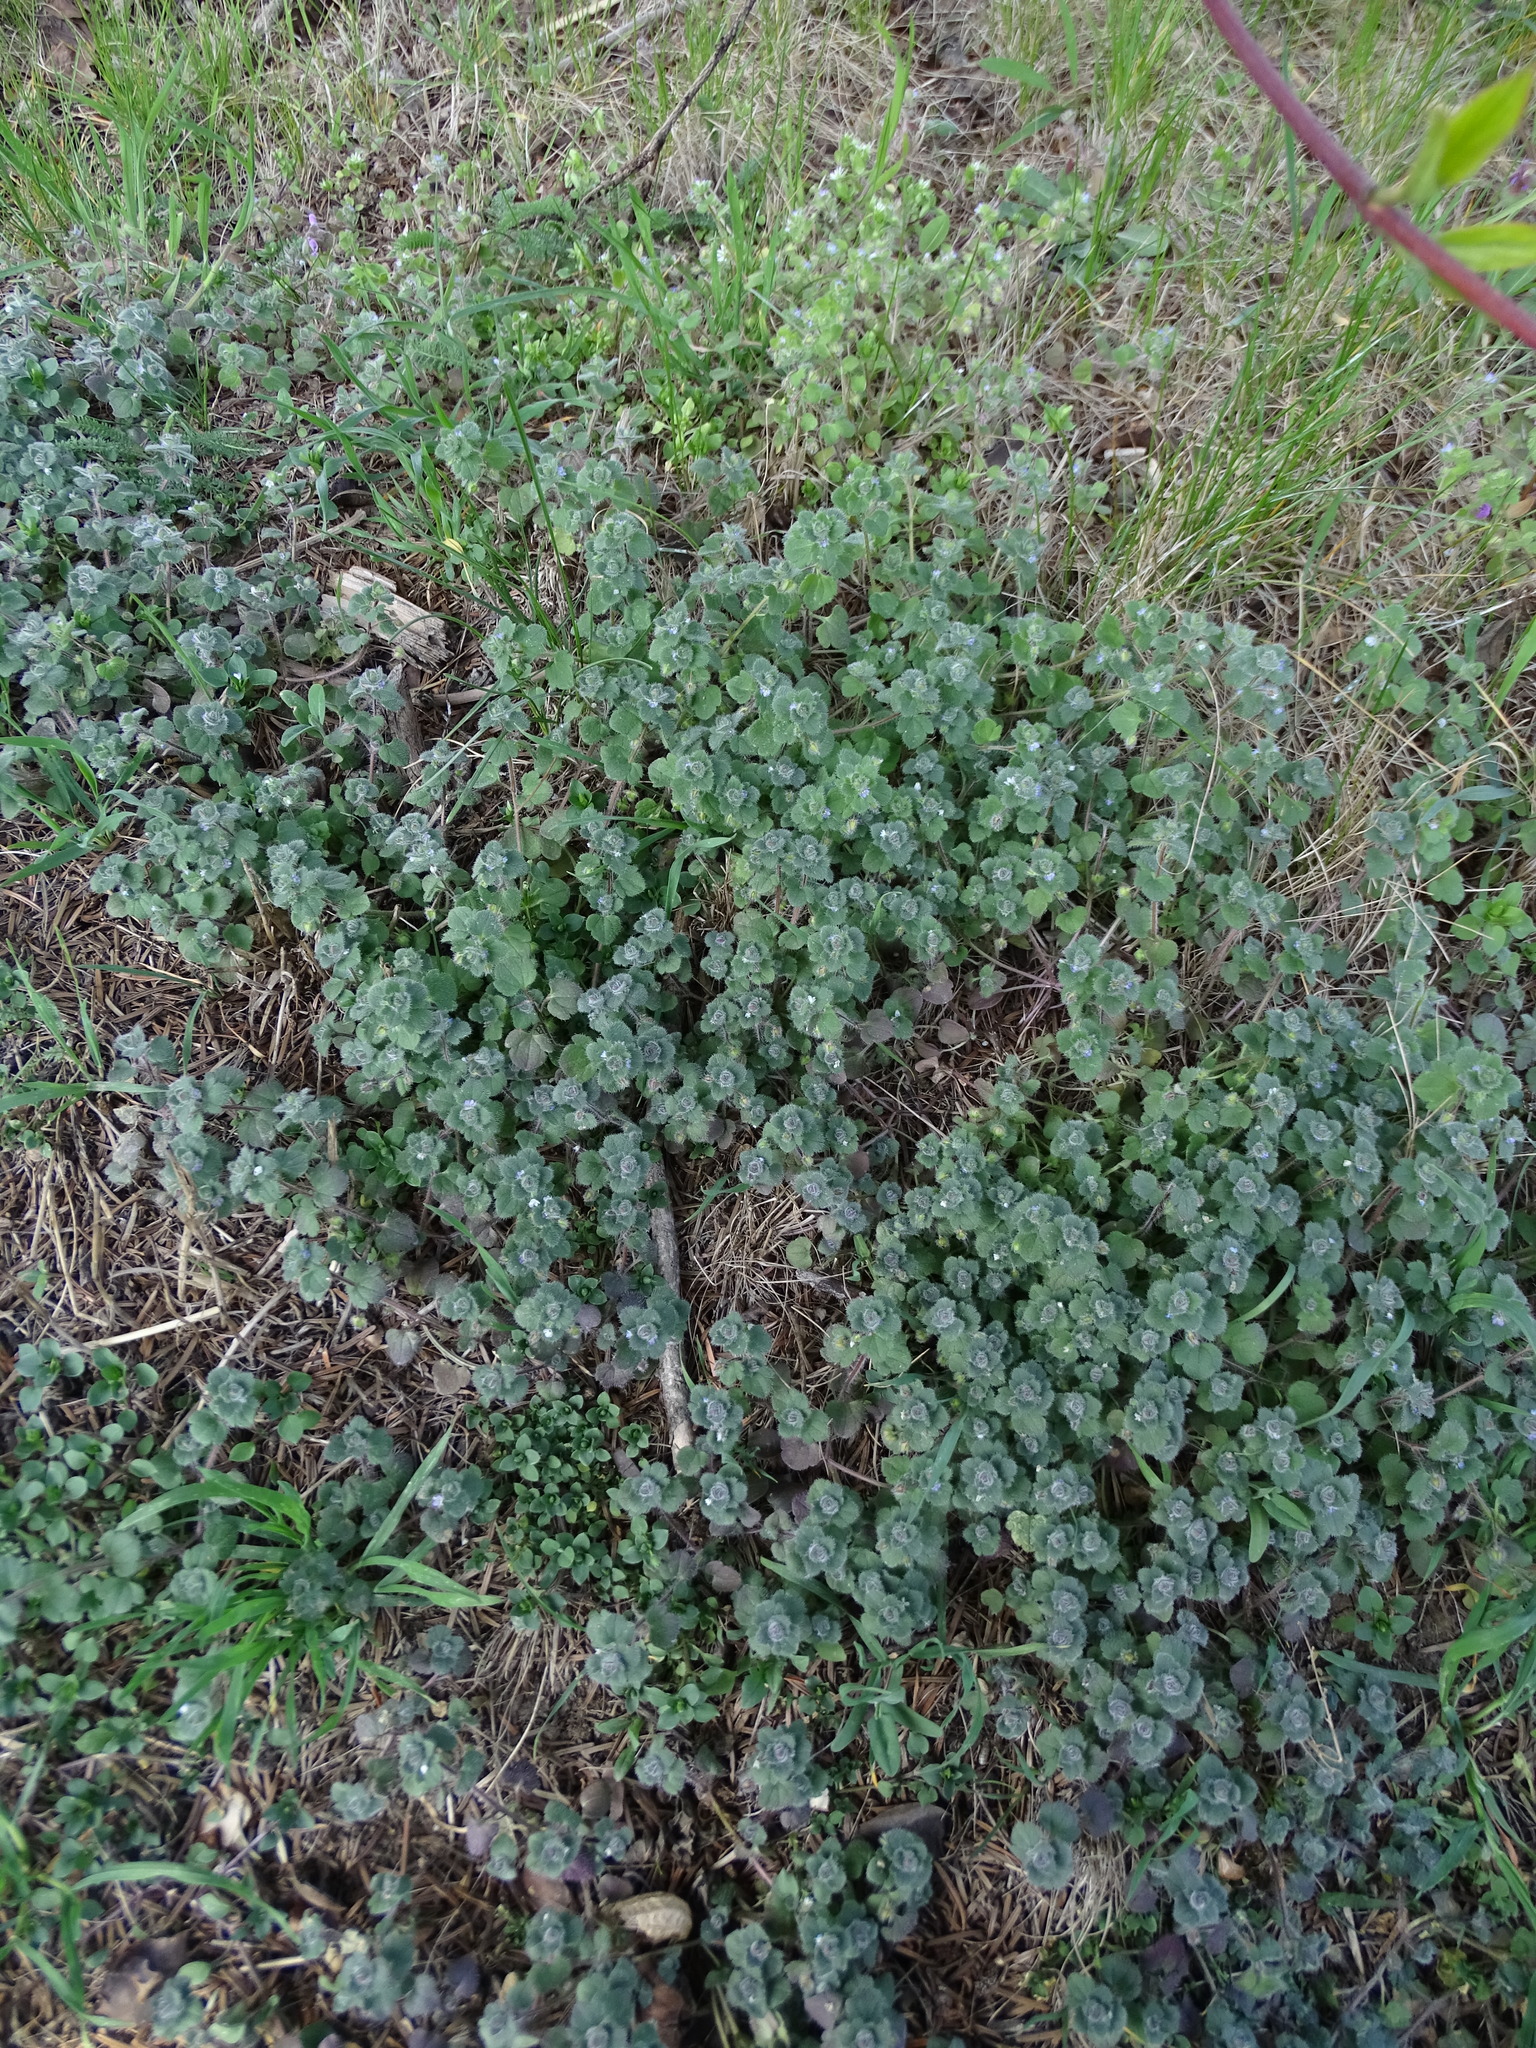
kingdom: Plantae
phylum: Tracheophyta
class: Magnoliopsida
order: Lamiales
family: Plantaginaceae
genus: Veronica
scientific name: Veronica hederifolia
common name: Ivy-leaved speedwell
